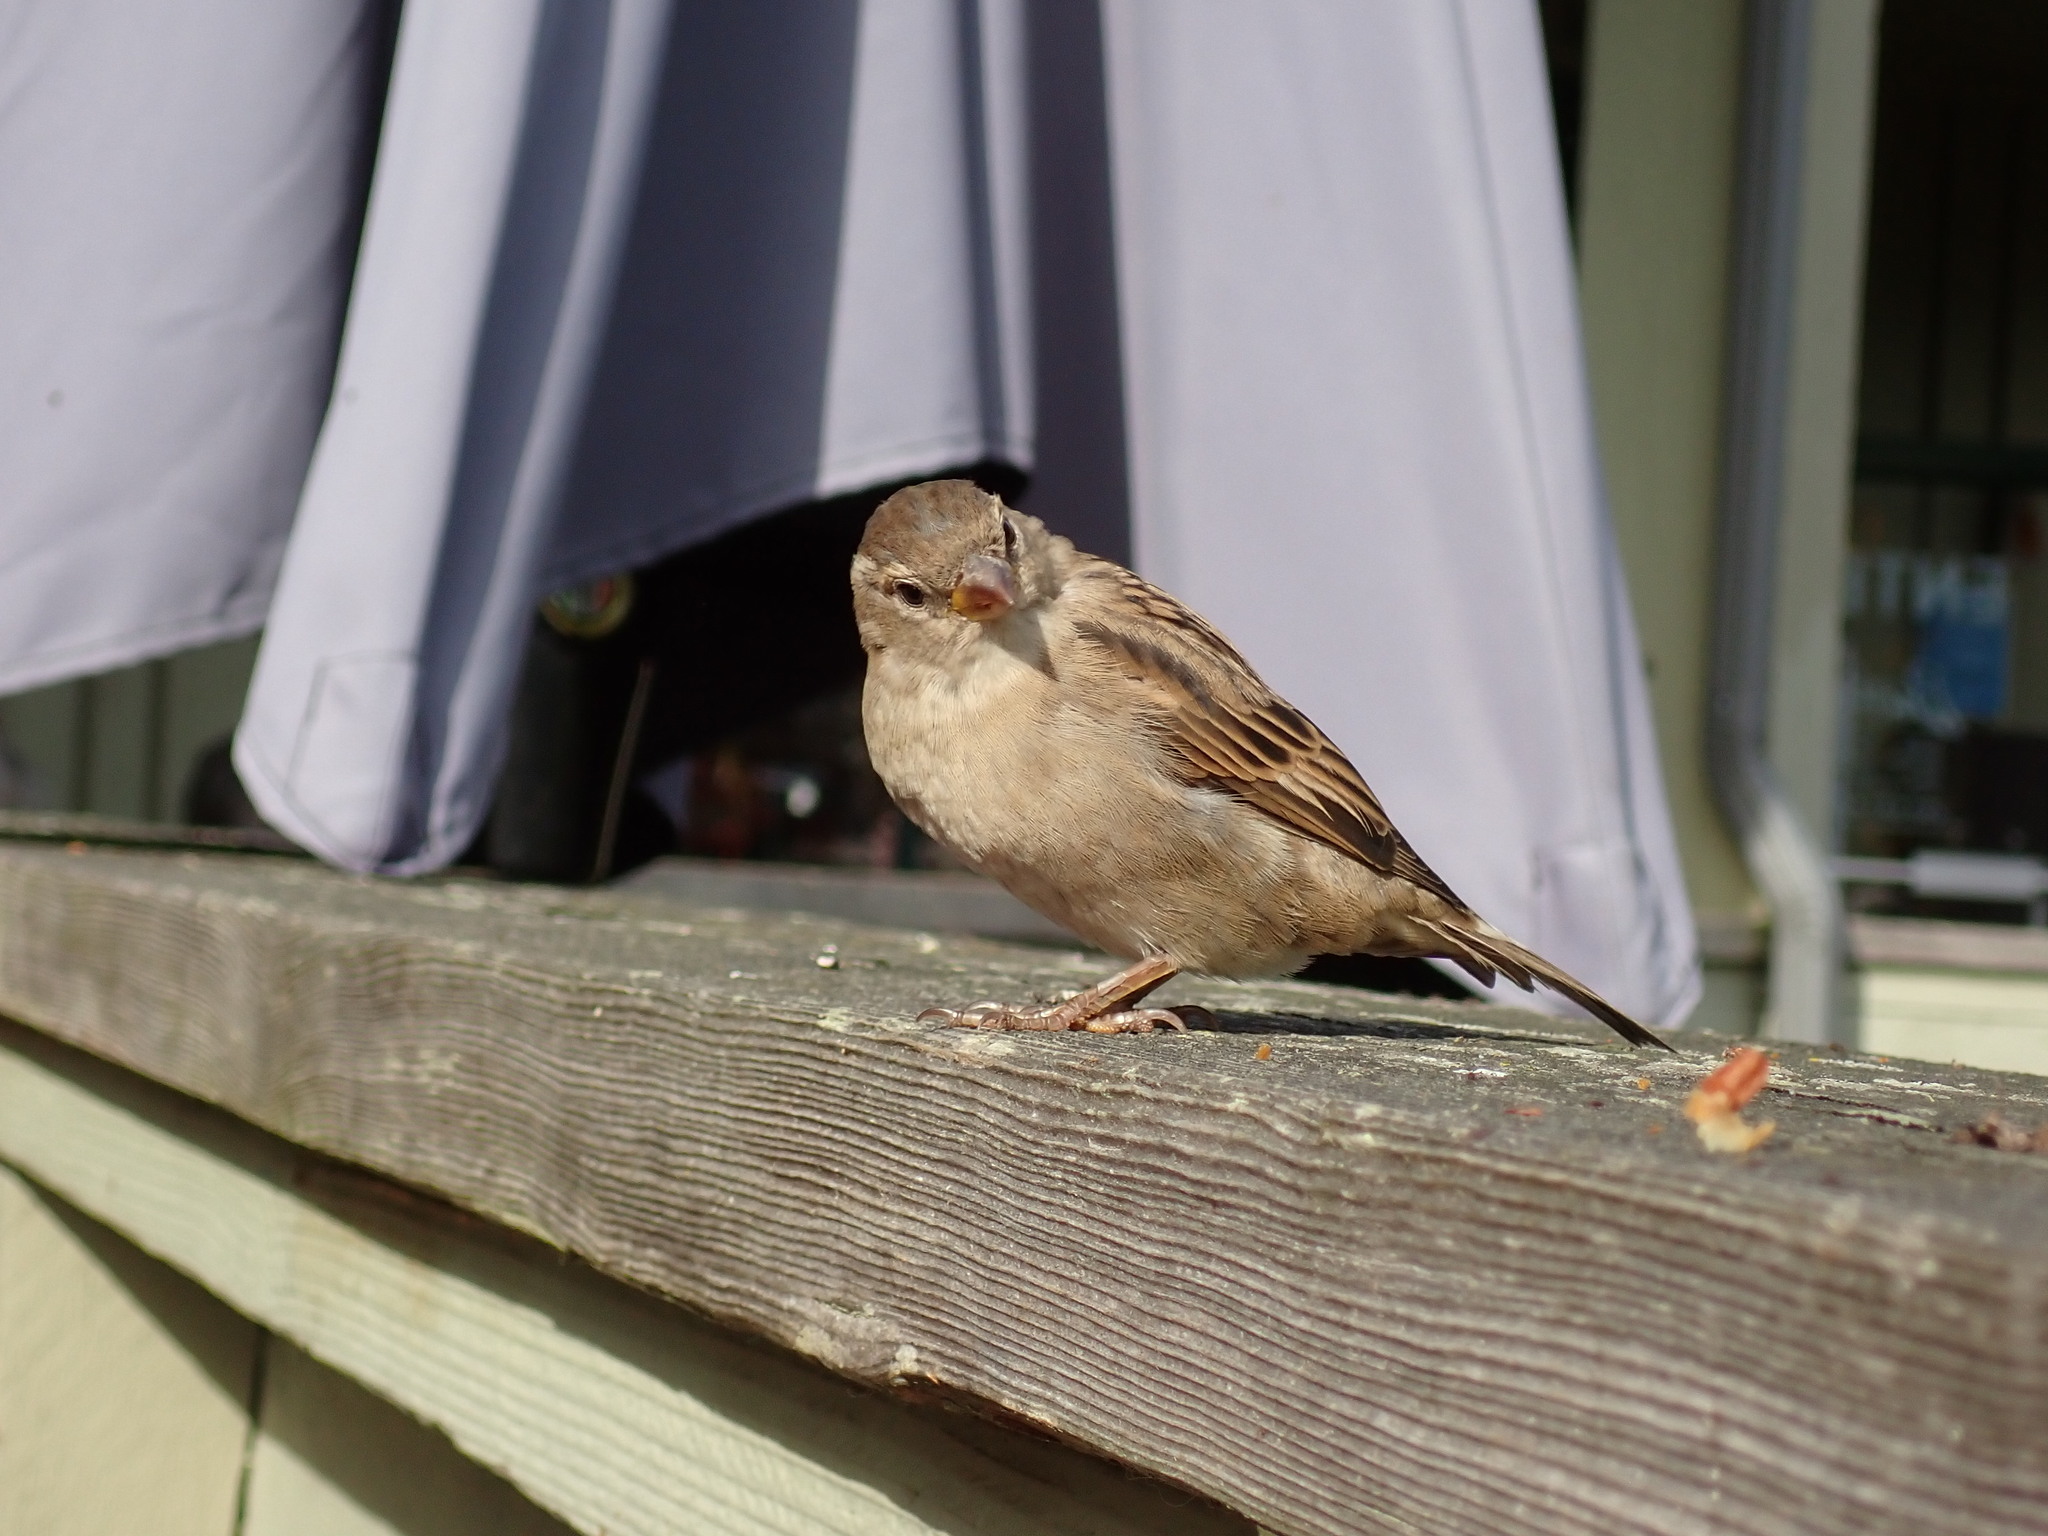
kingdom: Animalia
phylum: Chordata
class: Aves
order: Passeriformes
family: Passeridae
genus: Passer
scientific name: Passer domesticus
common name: House sparrow
